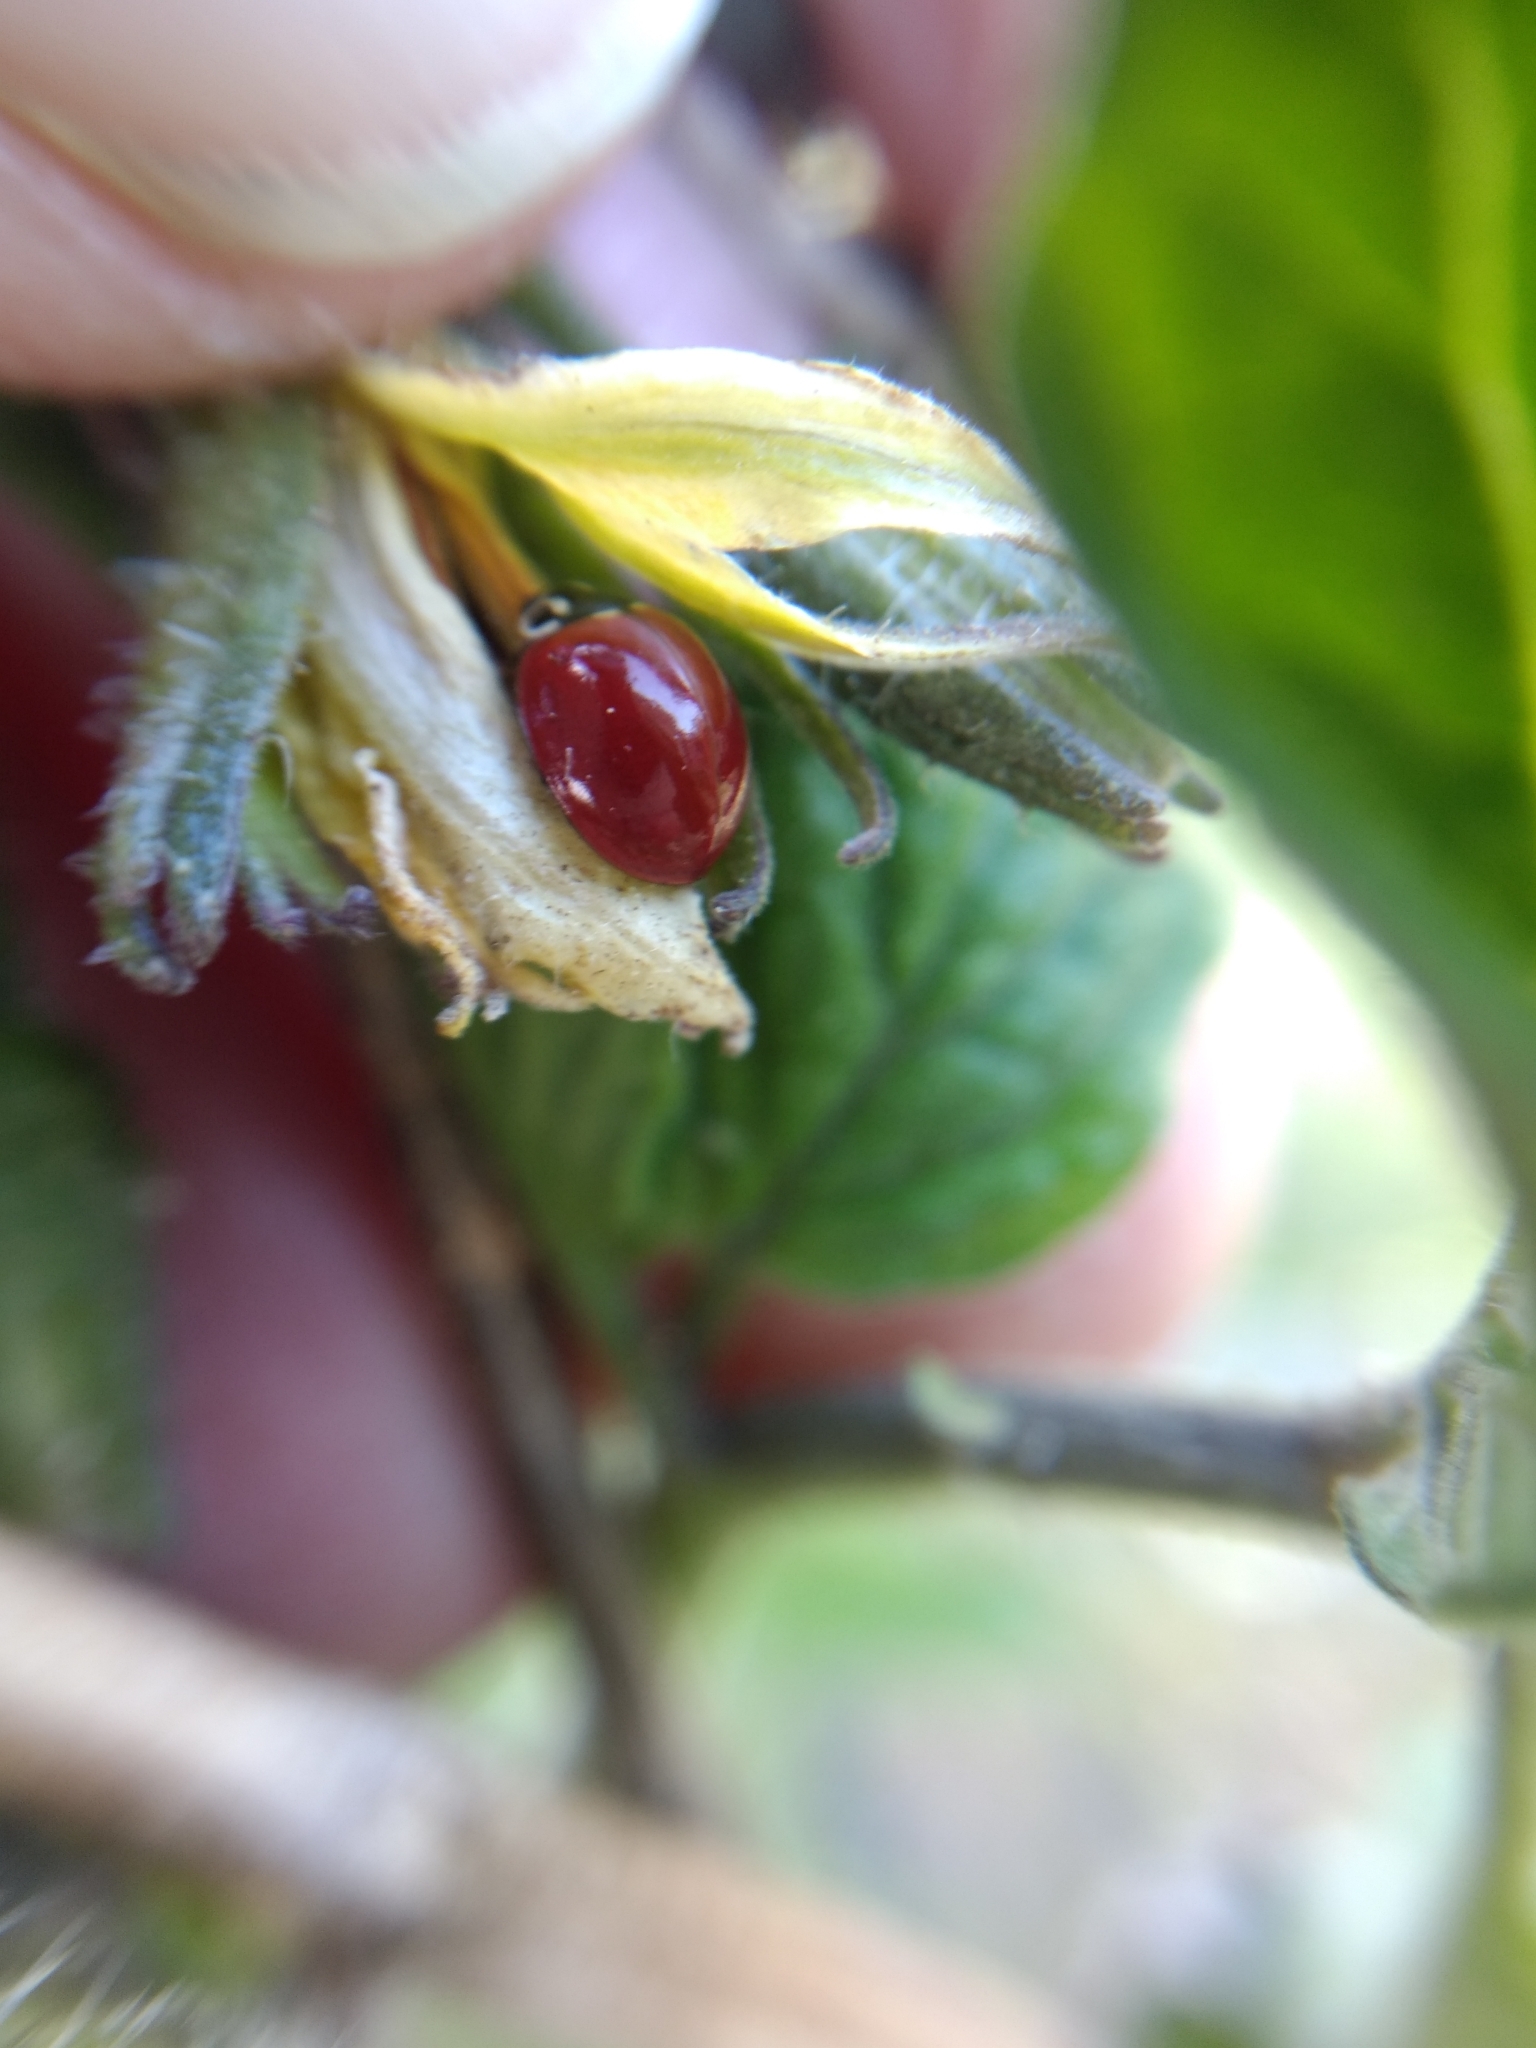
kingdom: Animalia
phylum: Arthropoda
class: Insecta
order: Coleoptera
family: Coccinellidae
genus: Cycloneda
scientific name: Cycloneda polita
